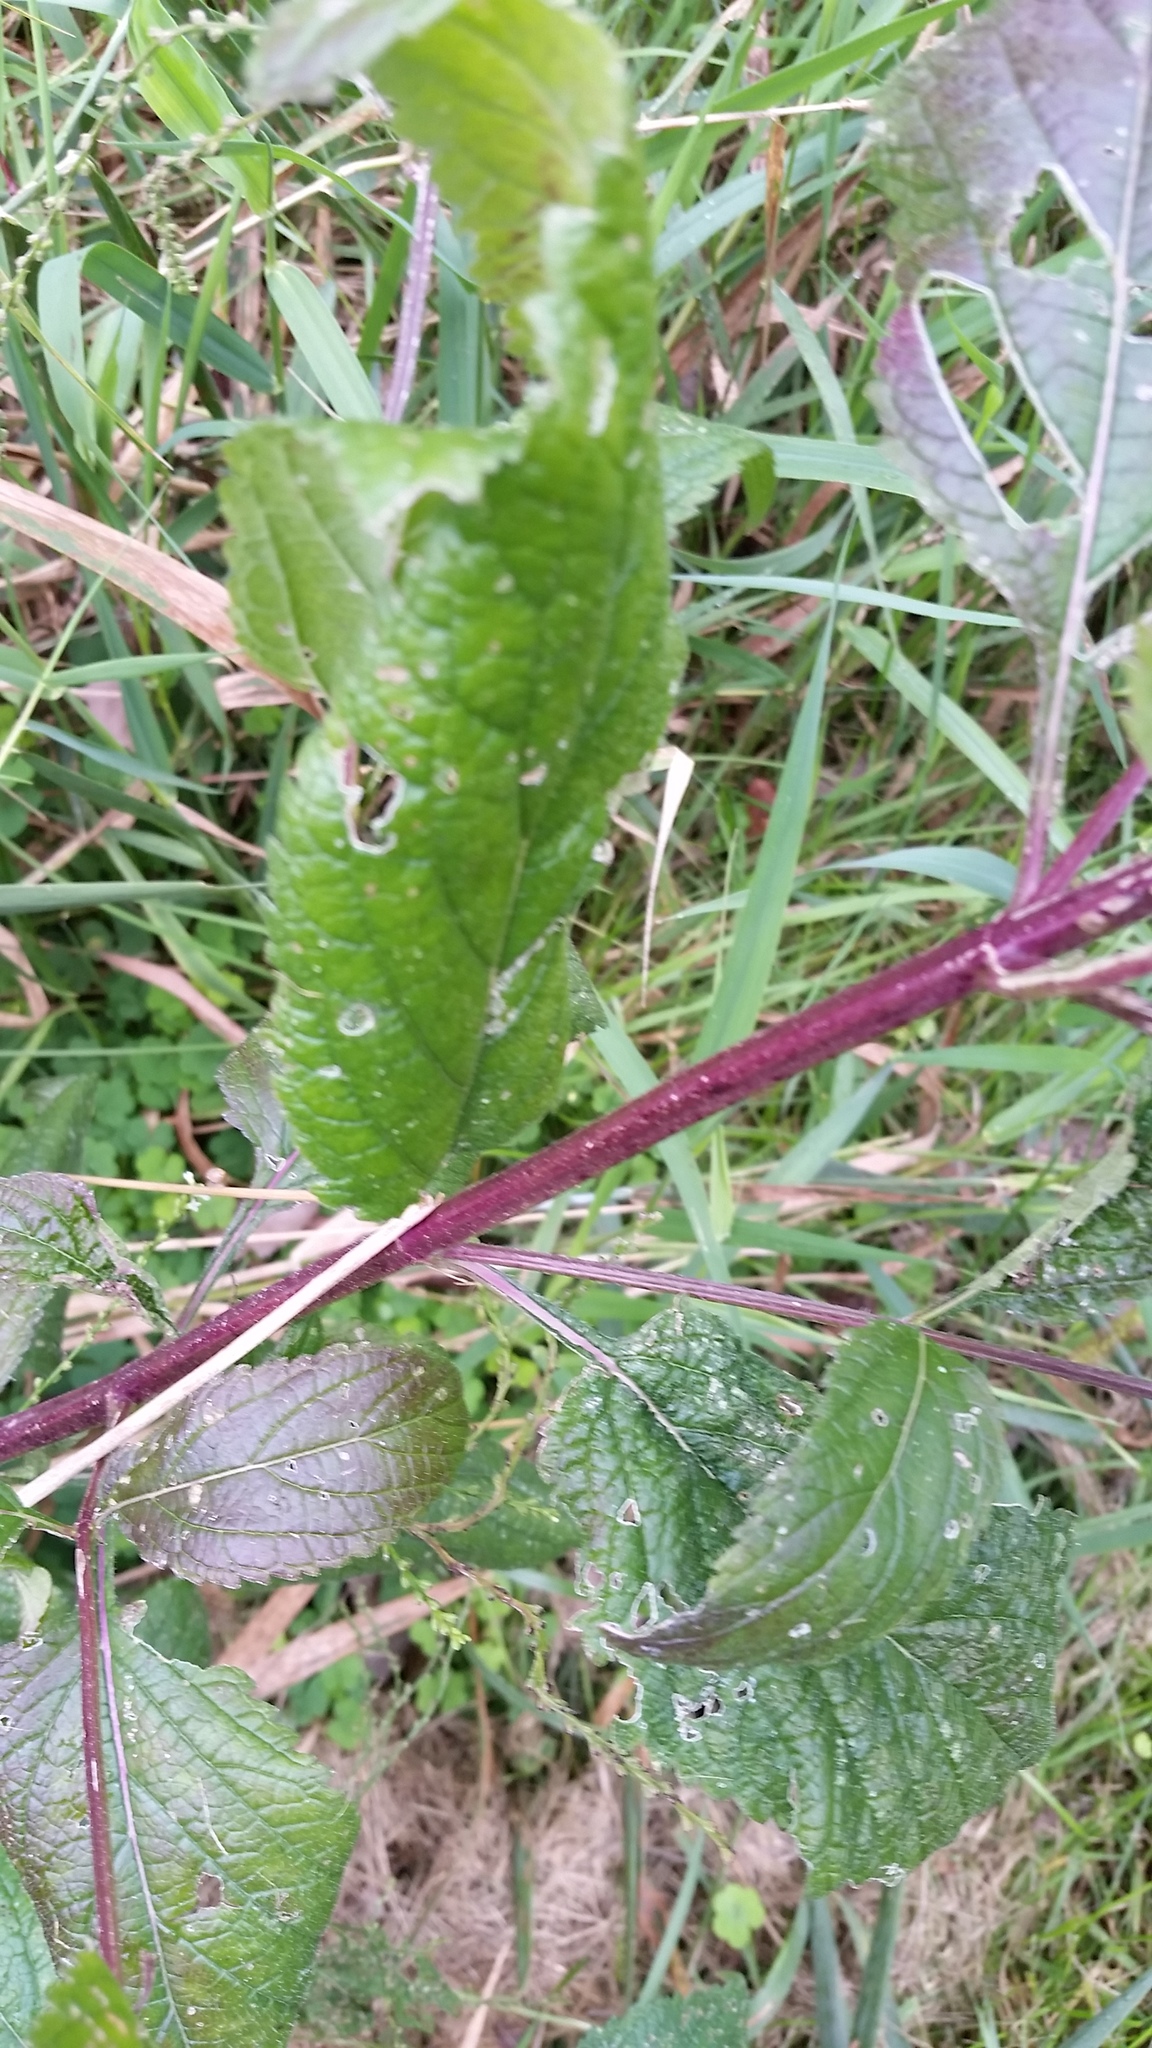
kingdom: Plantae
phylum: Tracheophyta
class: Magnoliopsida
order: Lamiales
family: Verbenaceae
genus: Verbena
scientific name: Verbena urticifolia
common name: Nettle-leaved vervain
